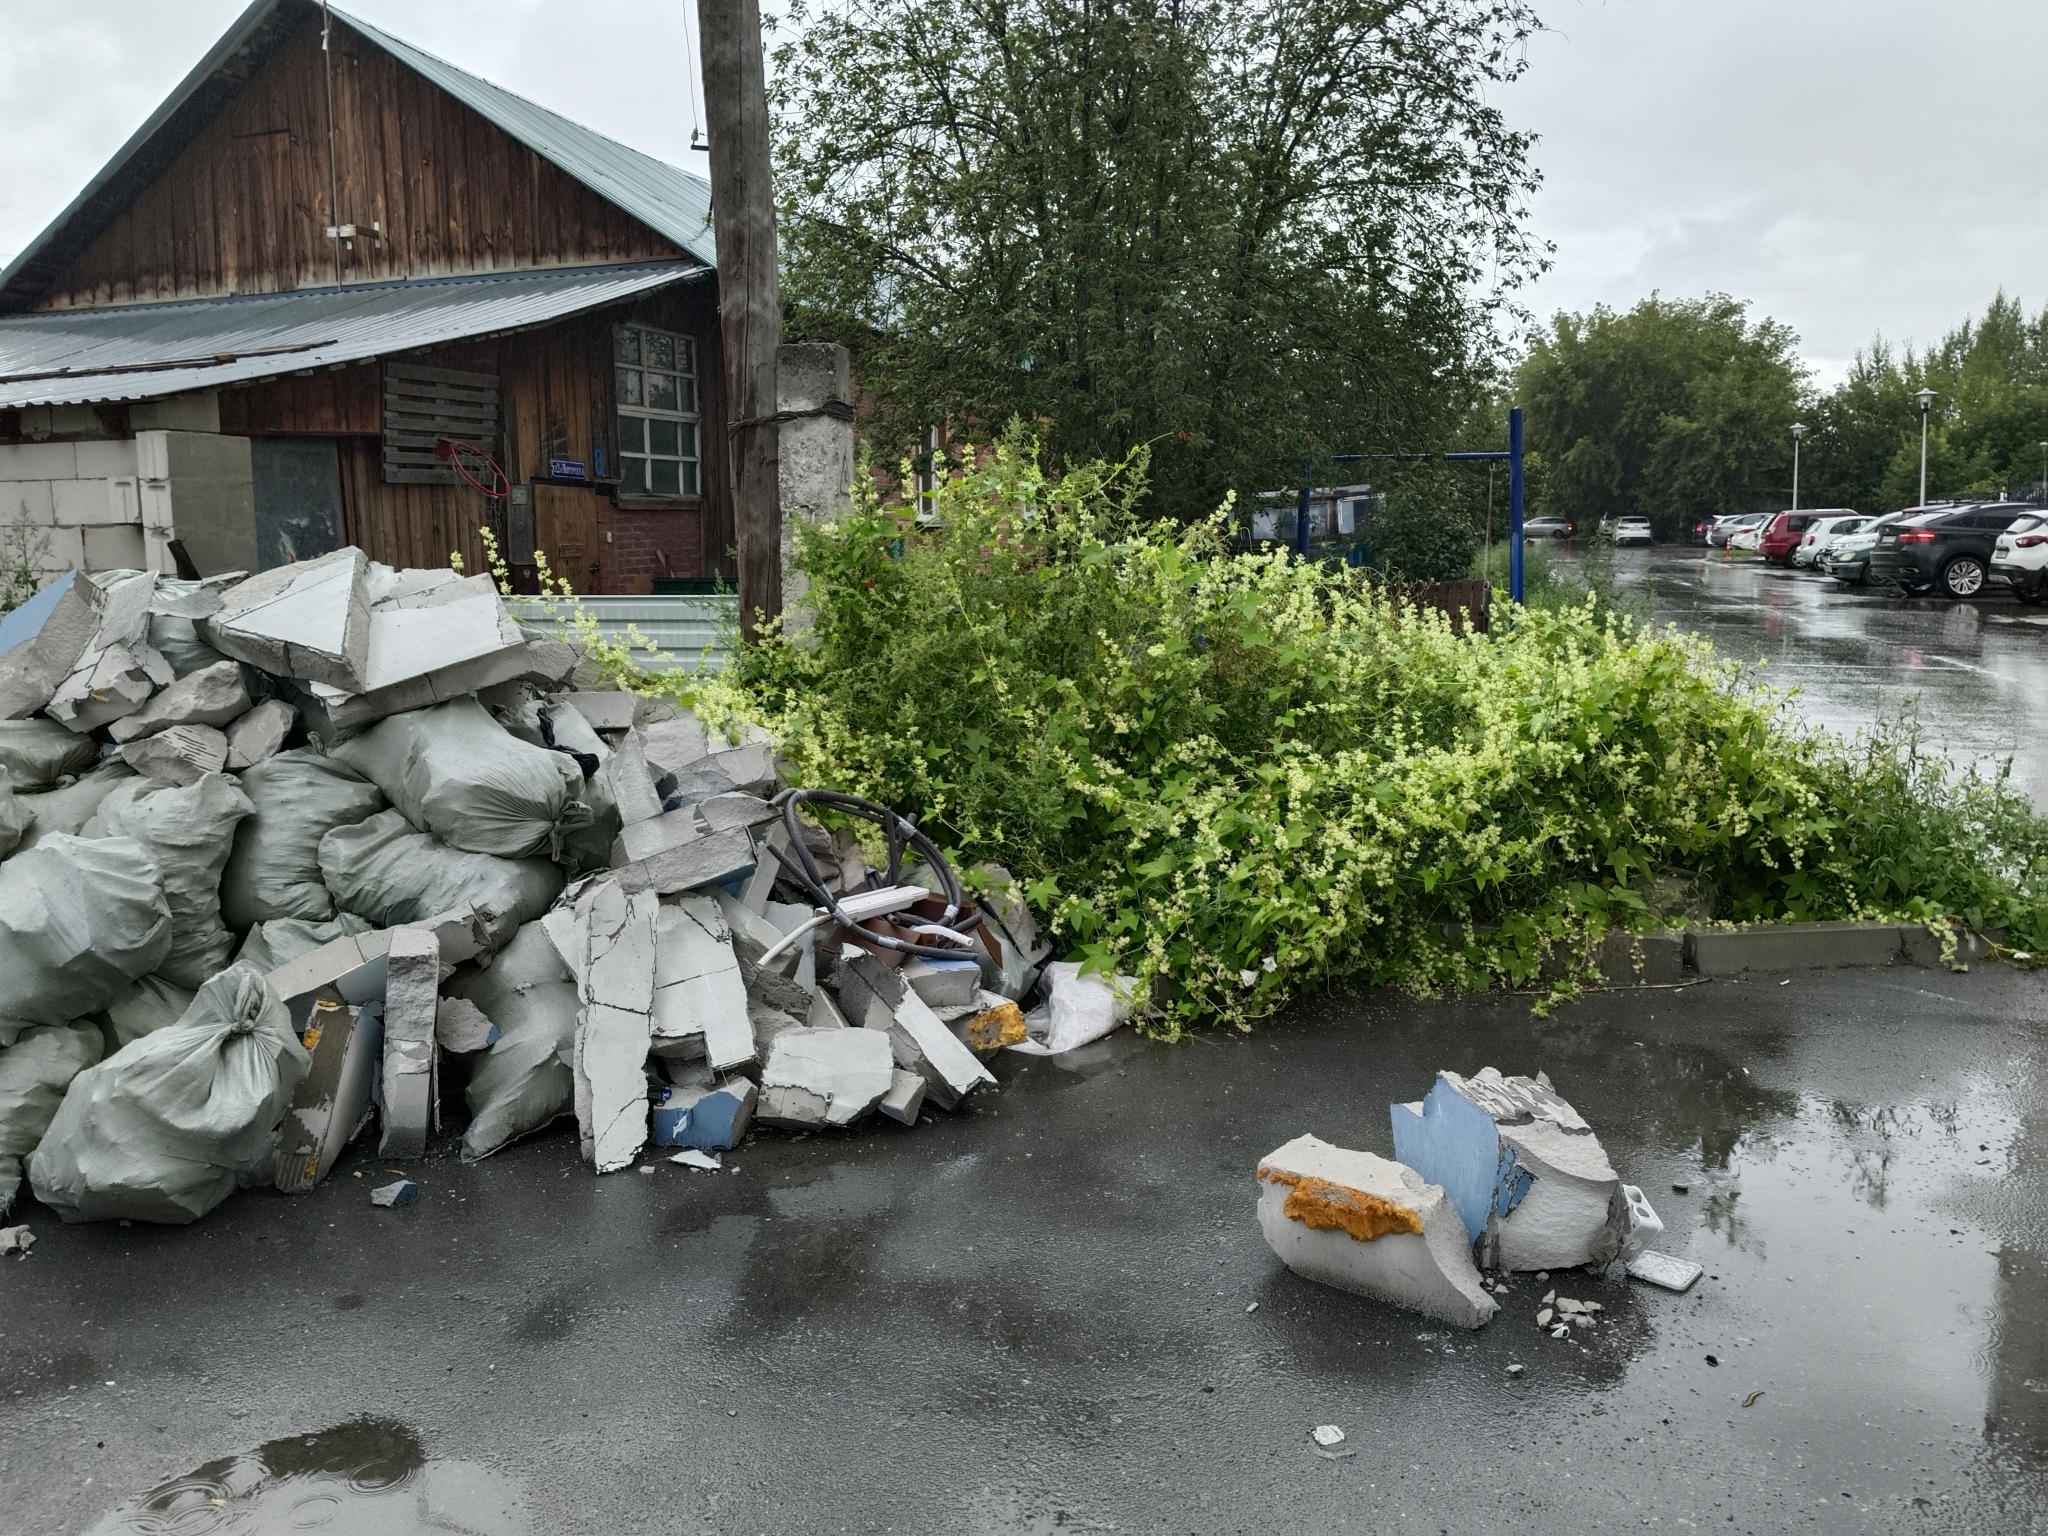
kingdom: Plantae
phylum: Tracheophyta
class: Magnoliopsida
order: Cucurbitales
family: Cucurbitaceae
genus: Echinocystis
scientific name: Echinocystis lobata
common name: Wild cucumber
